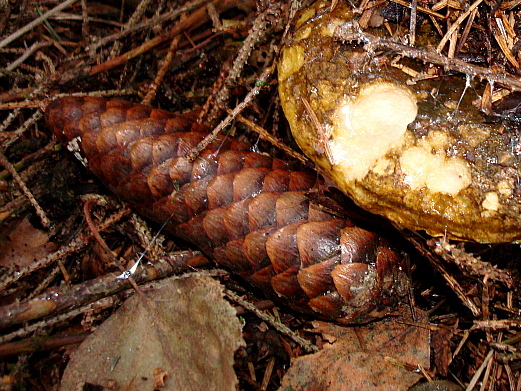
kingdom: Plantae
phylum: Tracheophyta
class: Pinopsida
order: Pinales
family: Pinaceae
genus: Picea
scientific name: Picea abies
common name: Norway spruce
